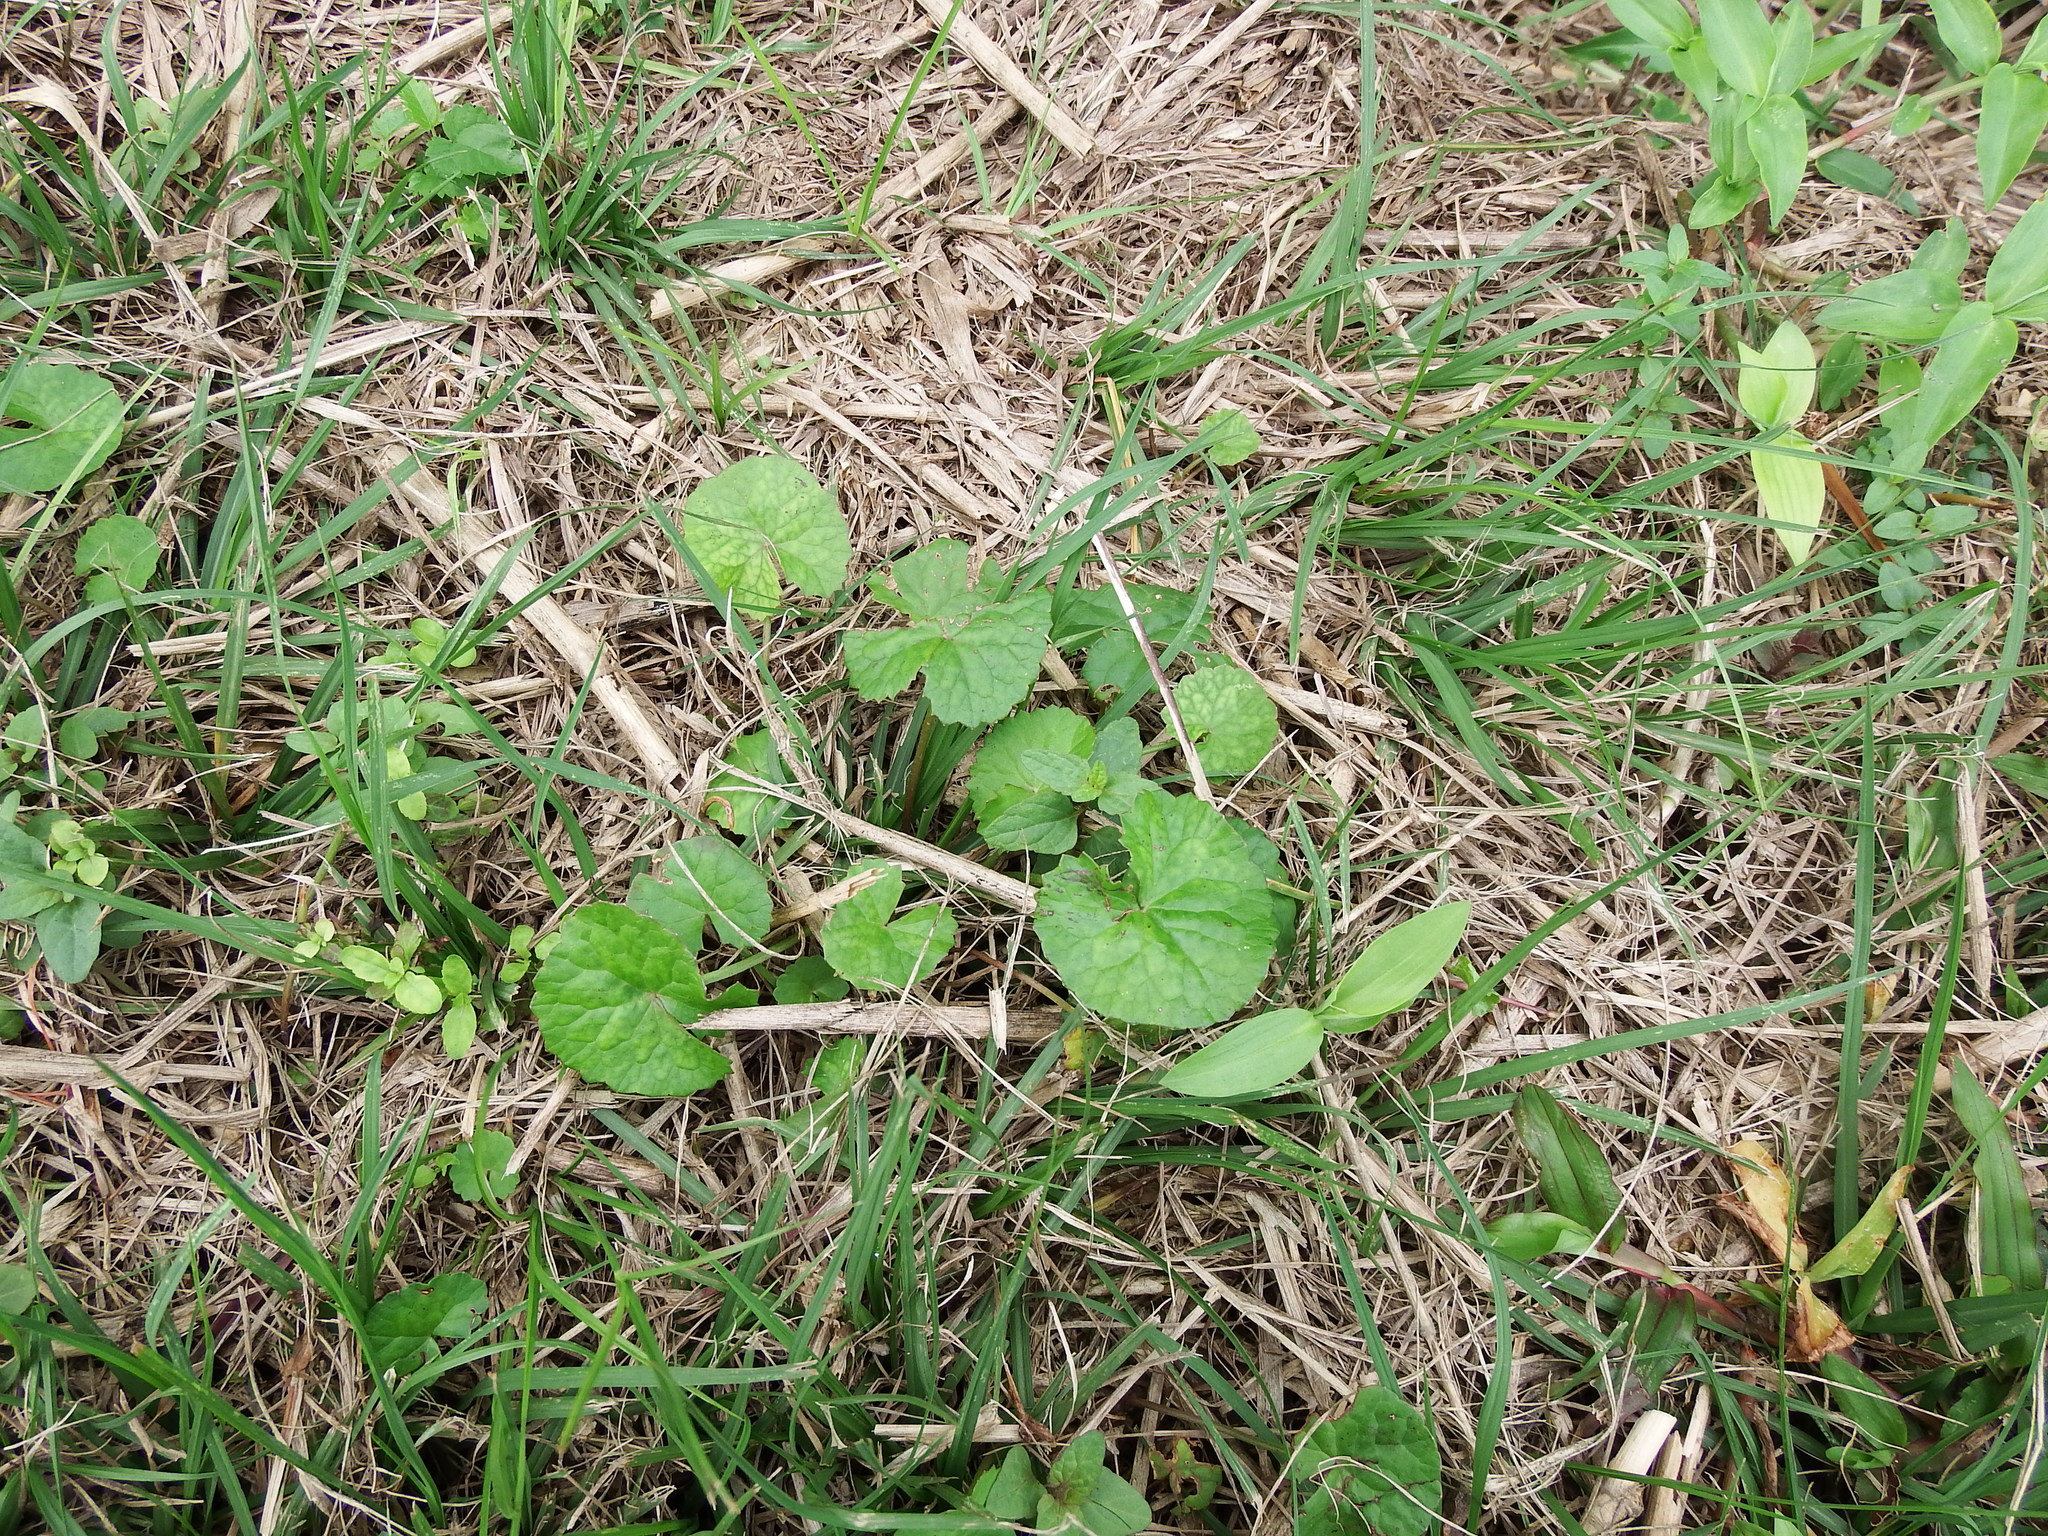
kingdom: Plantae
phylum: Tracheophyta
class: Magnoliopsida
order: Apiales
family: Apiaceae
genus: Centella
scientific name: Centella asiatica
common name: Spadeleaf
